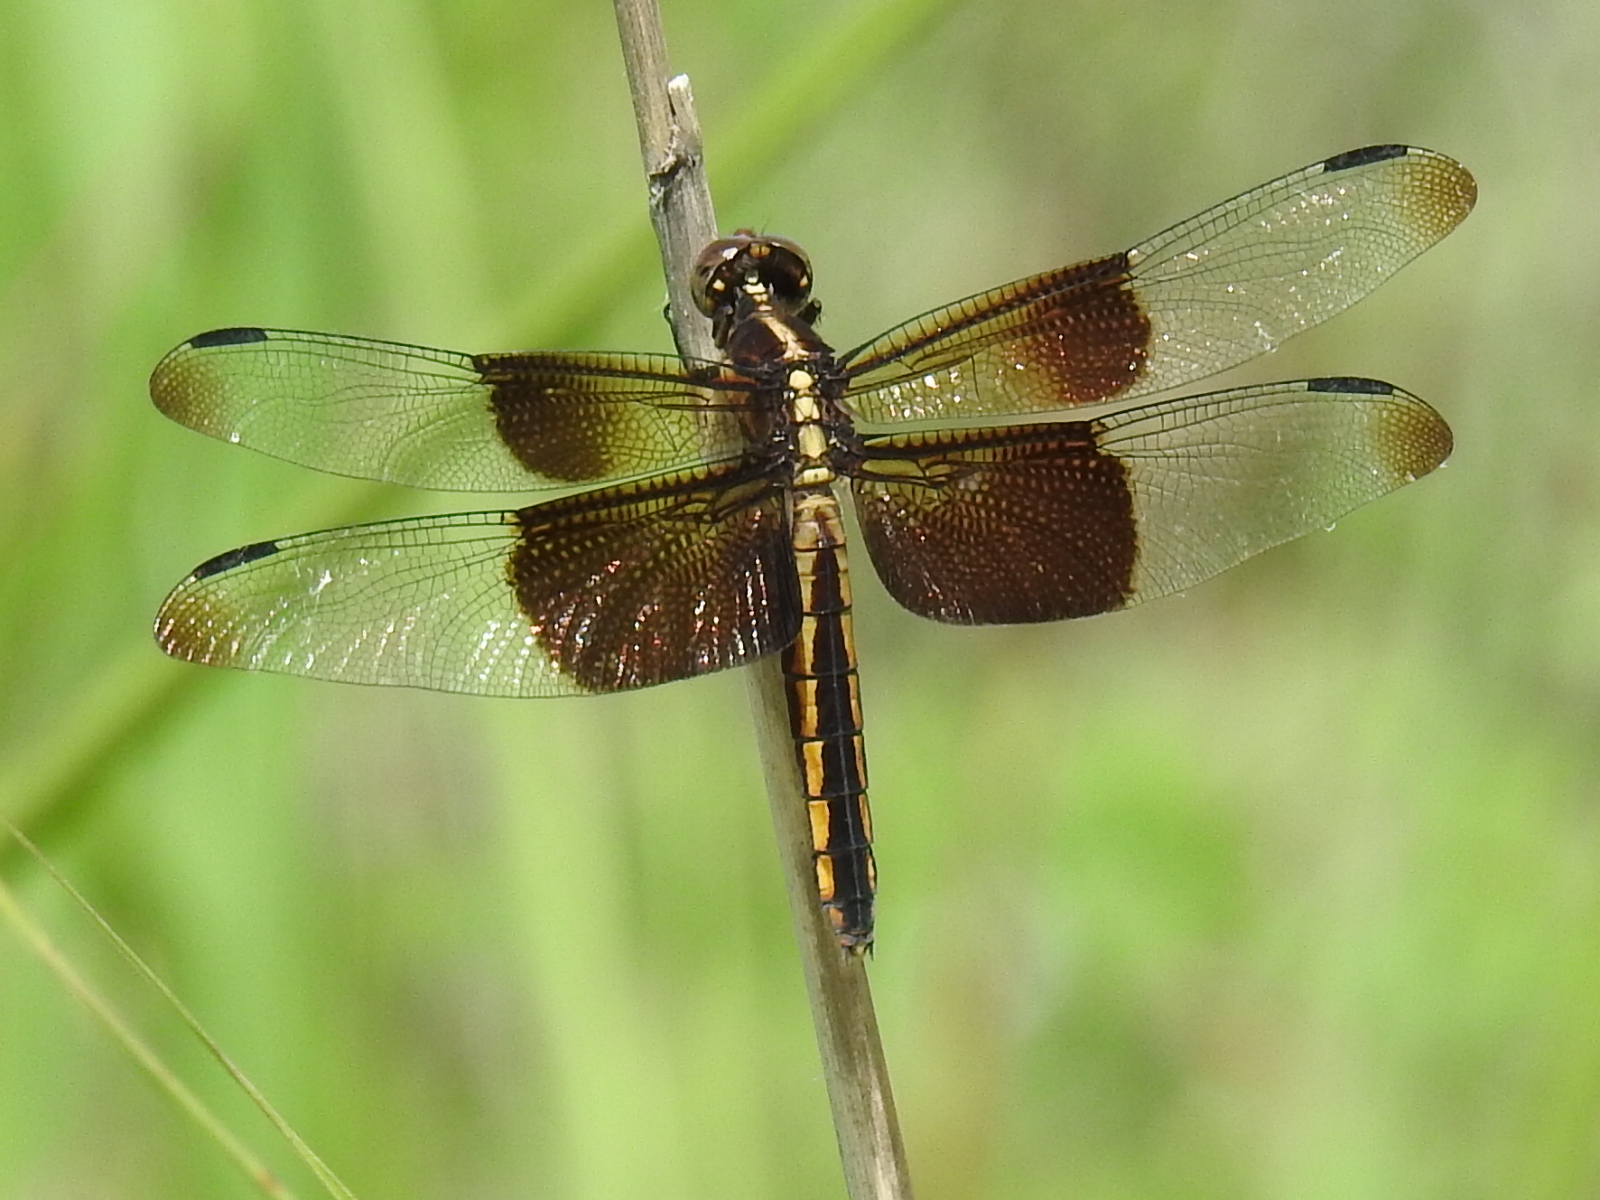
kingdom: Animalia
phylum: Arthropoda
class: Insecta
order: Odonata
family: Libellulidae
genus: Libellula
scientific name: Libellula luctuosa
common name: Widow skimmer
